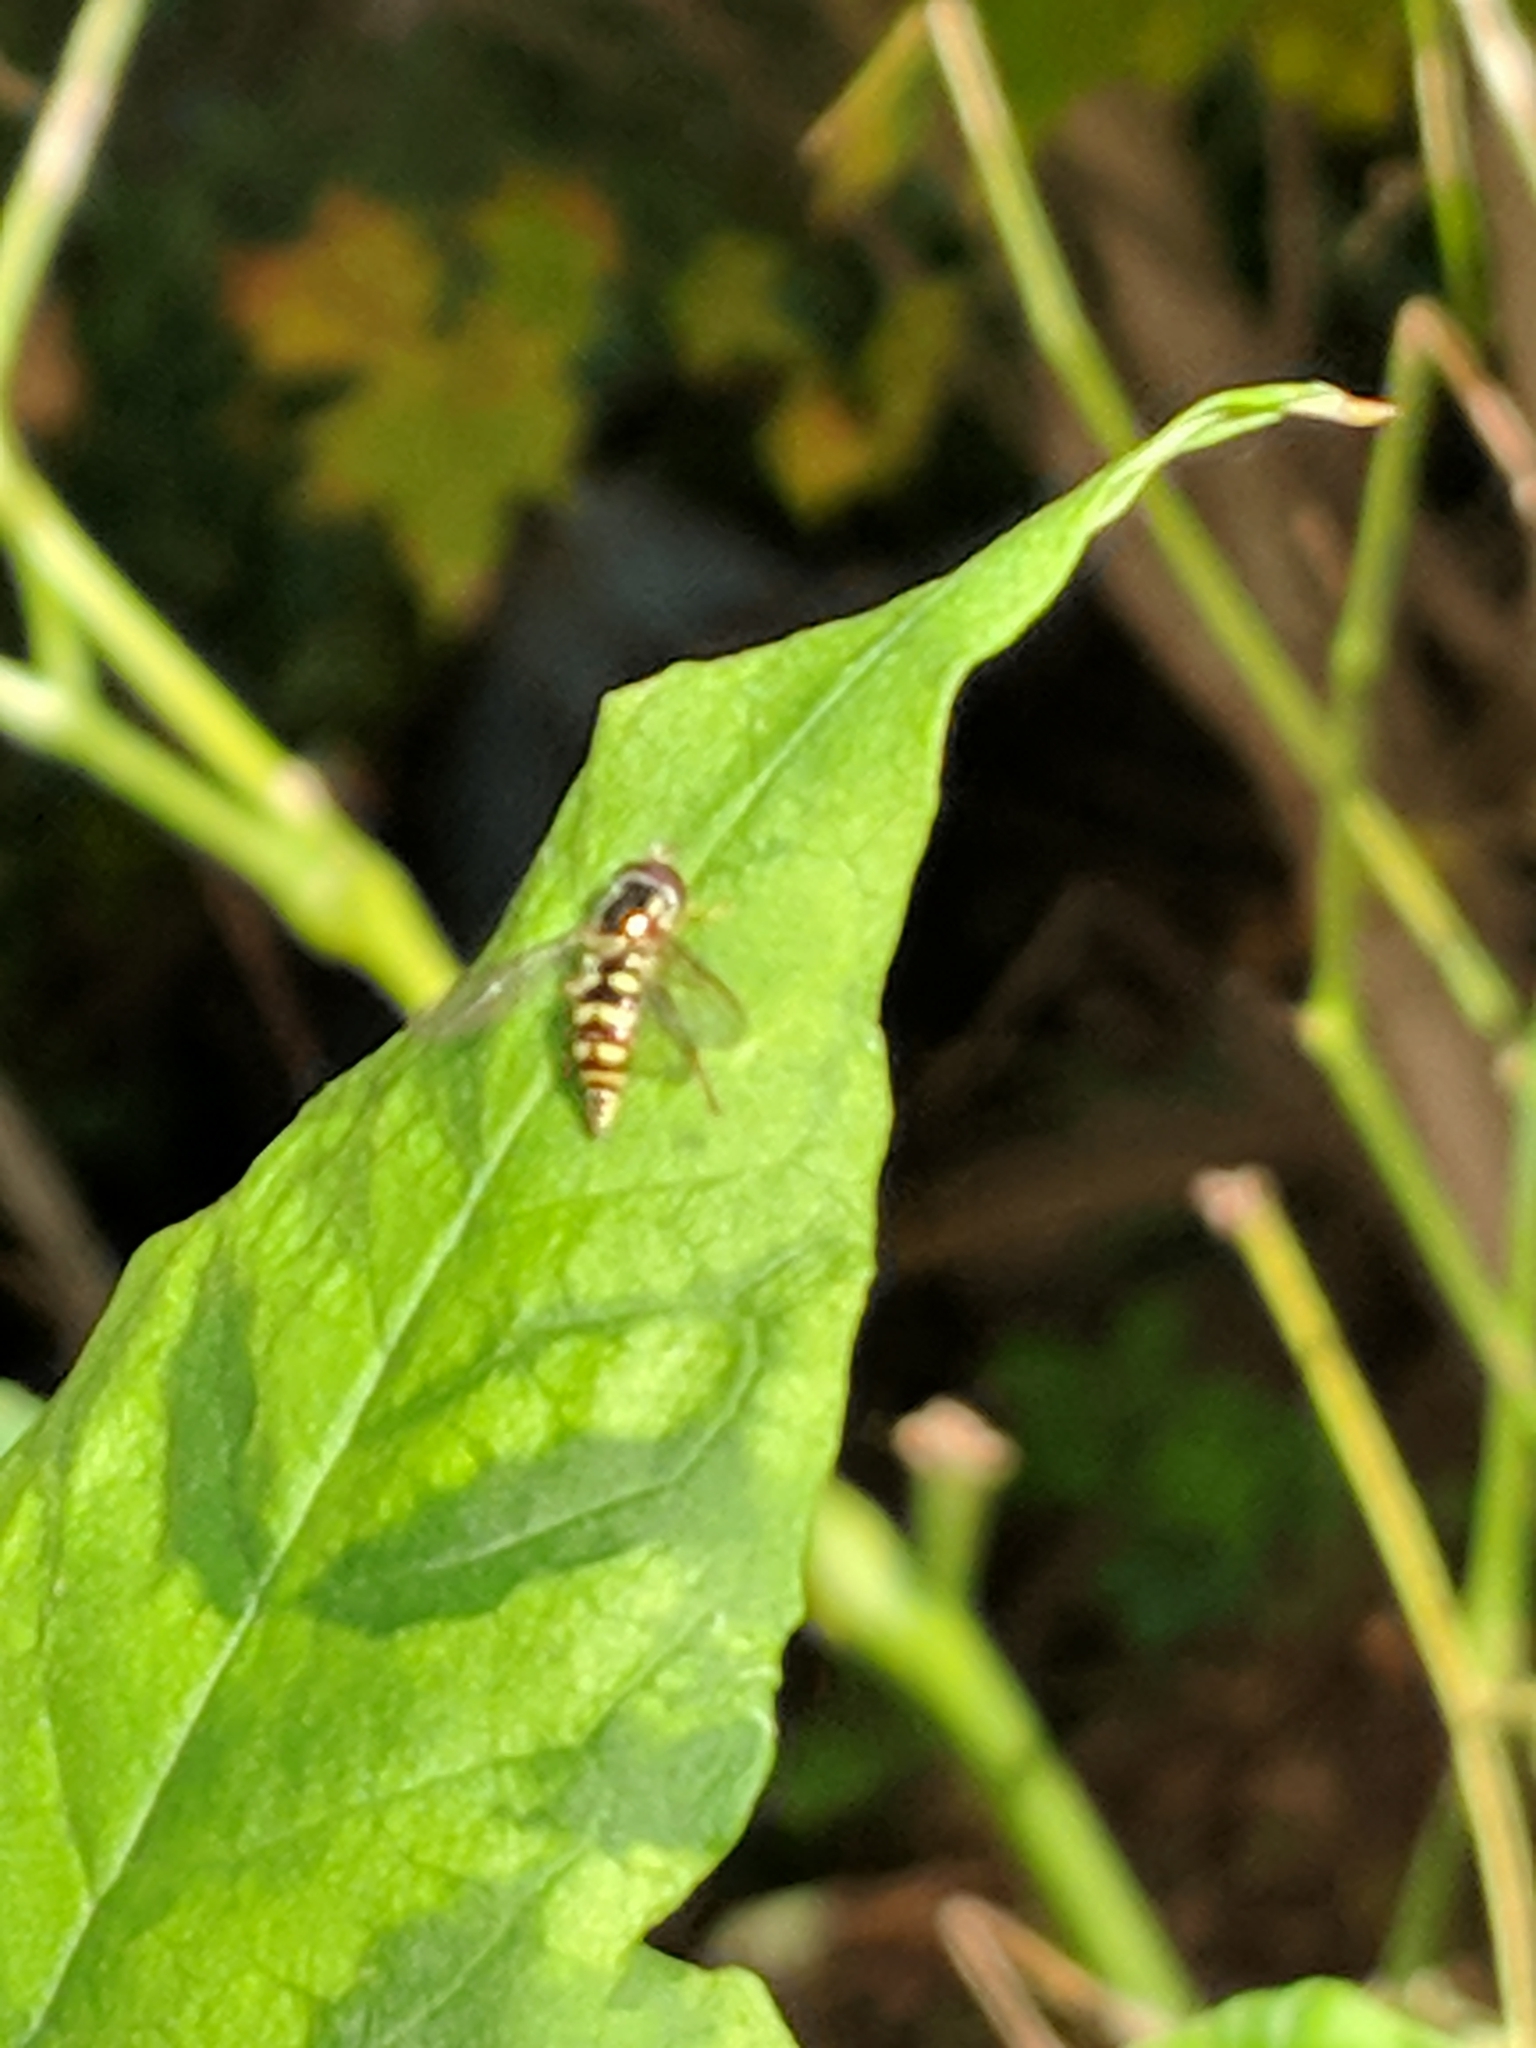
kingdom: Animalia
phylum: Arthropoda
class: Insecta
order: Diptera
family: Syrphidae
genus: Epistrophella
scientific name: Epistrophella emarginata
